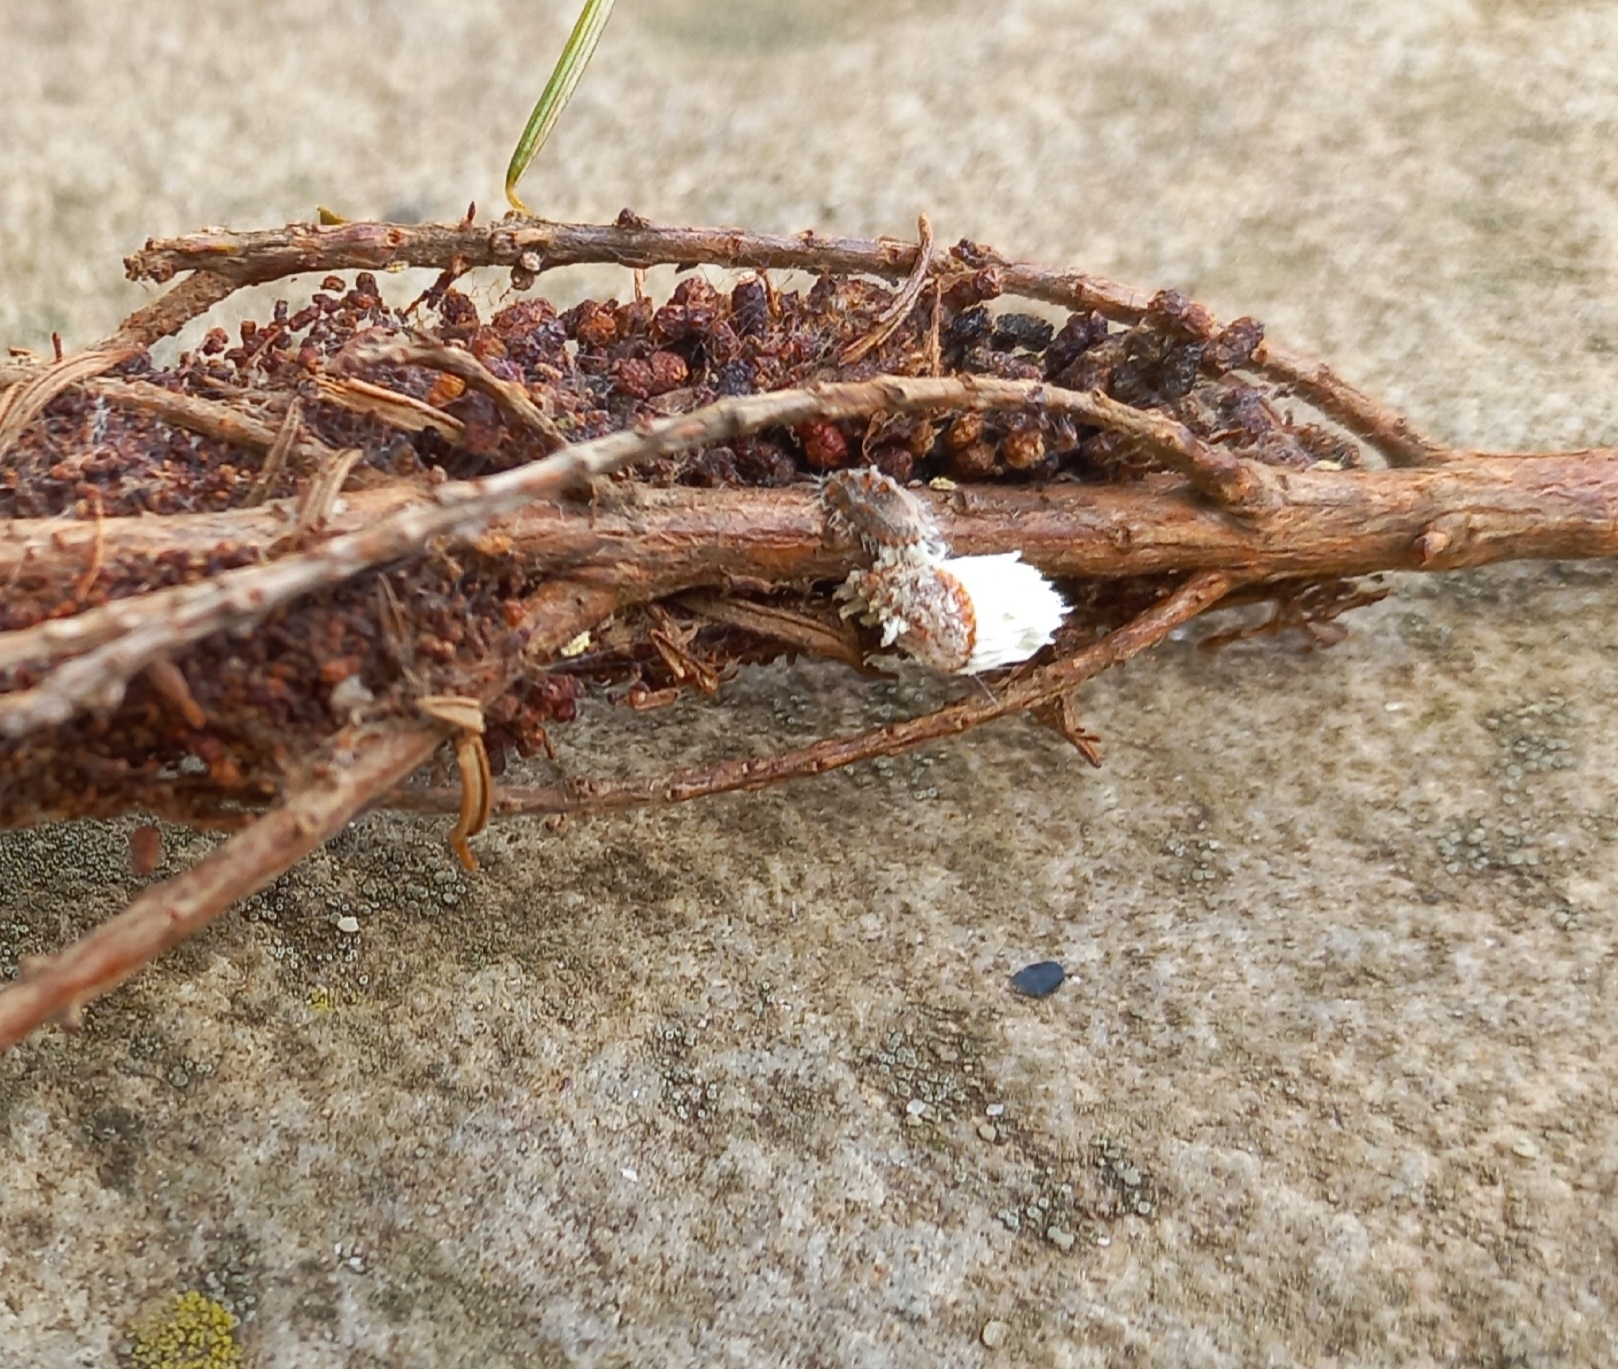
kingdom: Animalia
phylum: Arthropoda
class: Insecta
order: Hemiptera
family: Margarodidae
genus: Icerya
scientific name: Icerya purchasi
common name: Cottony cushion scale
